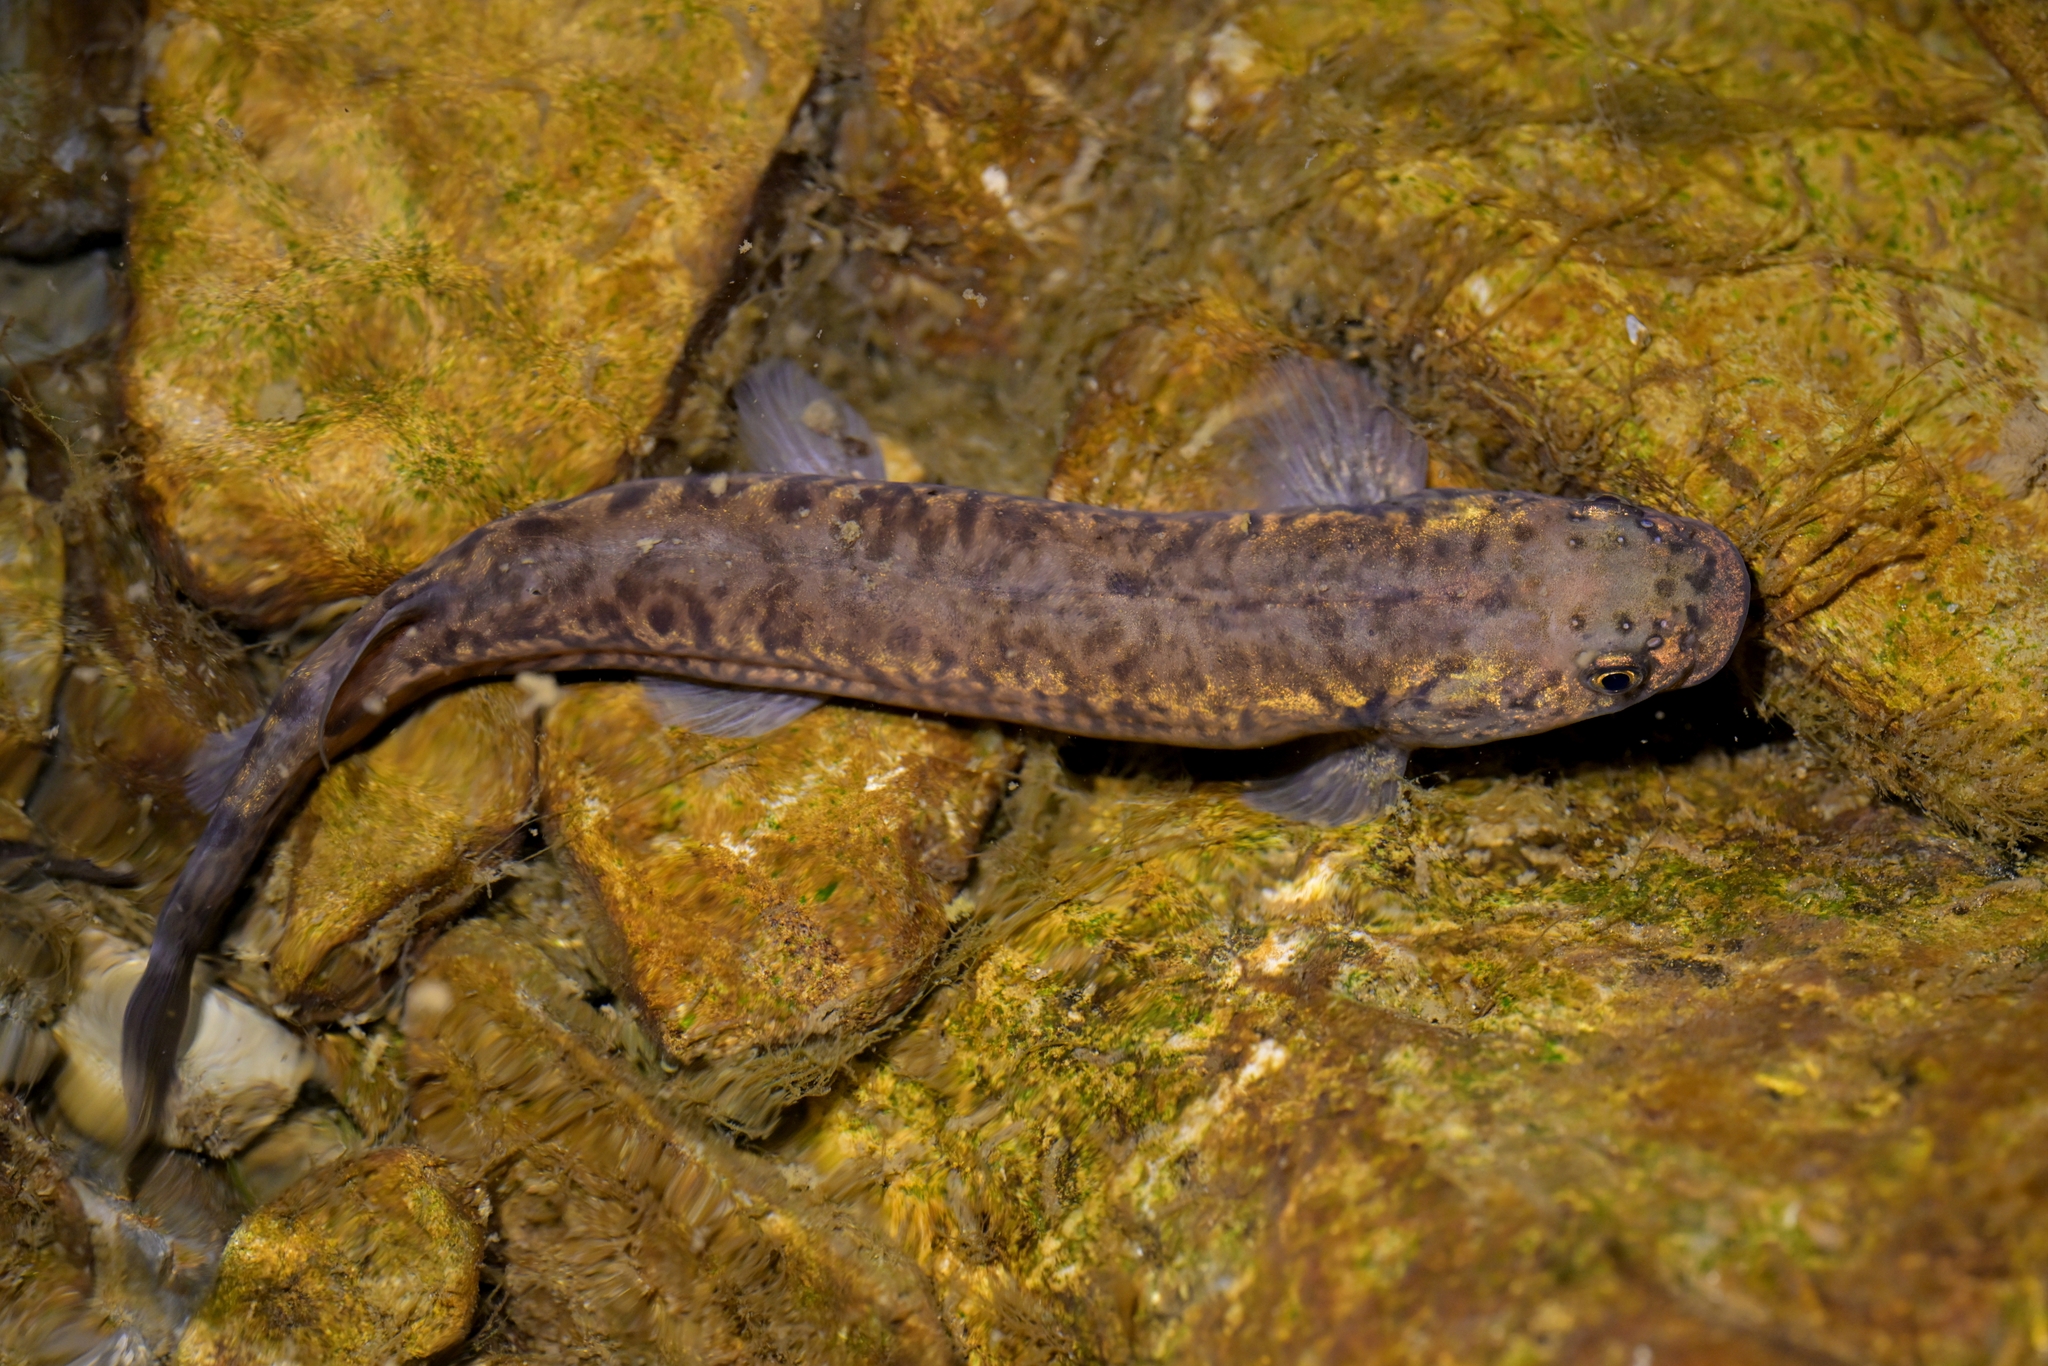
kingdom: Animalia
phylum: Chordata
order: Osmeriformes
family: Galaxiidae
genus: Galaxias
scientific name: Galaxias brevipinnis
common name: Koaro
